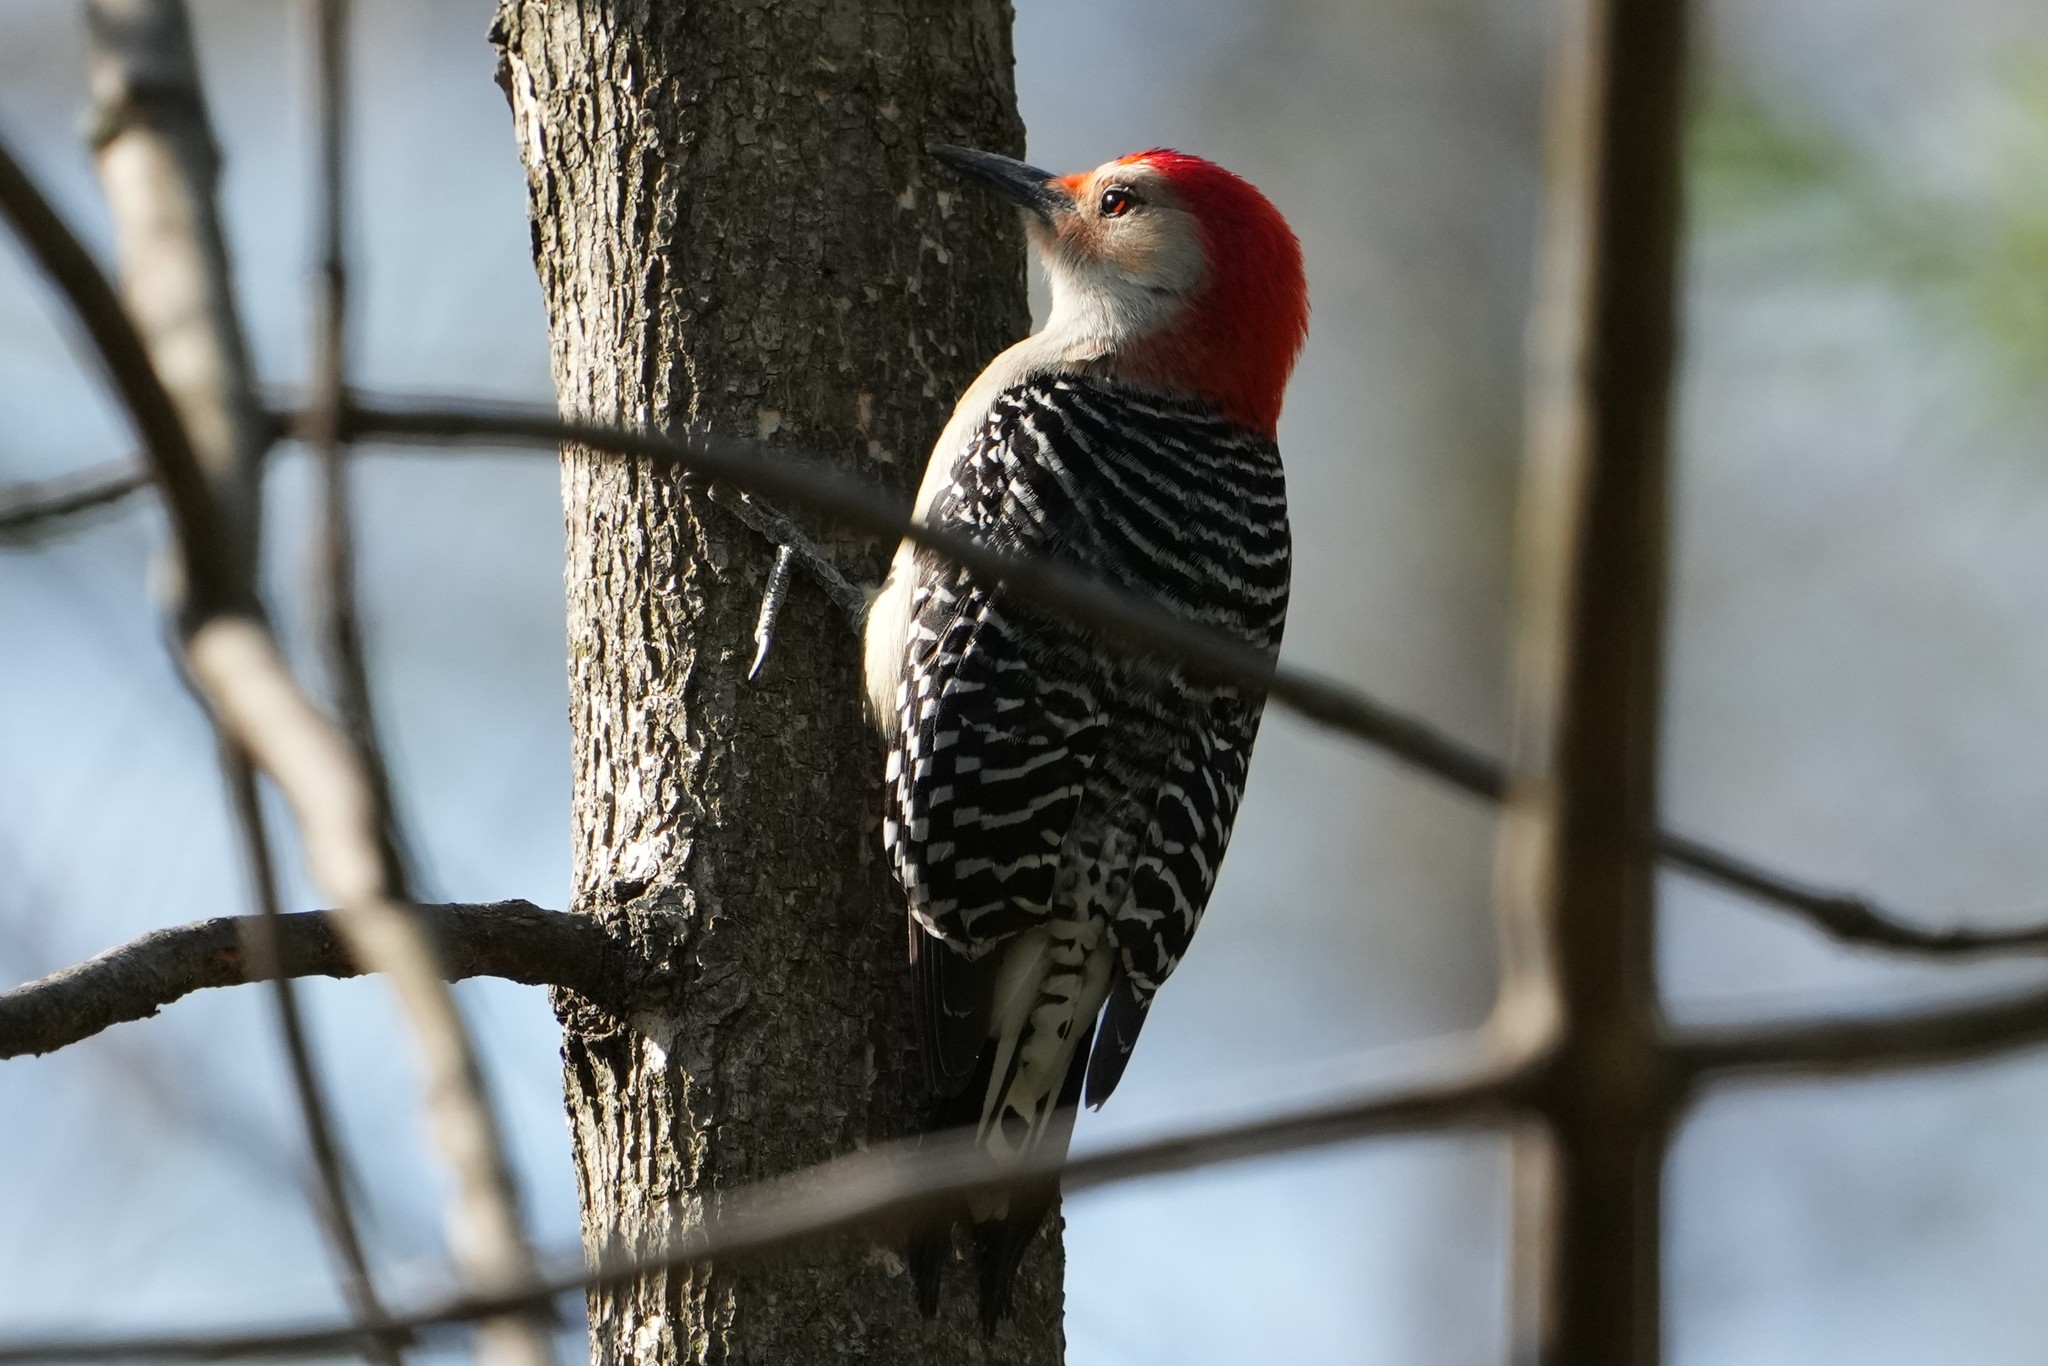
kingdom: Animalia
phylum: Chordata
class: Aves
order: Piciformes
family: Picidae
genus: Melanerpes
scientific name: Melanerpes carolinus
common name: Red-bellied woodpecker
